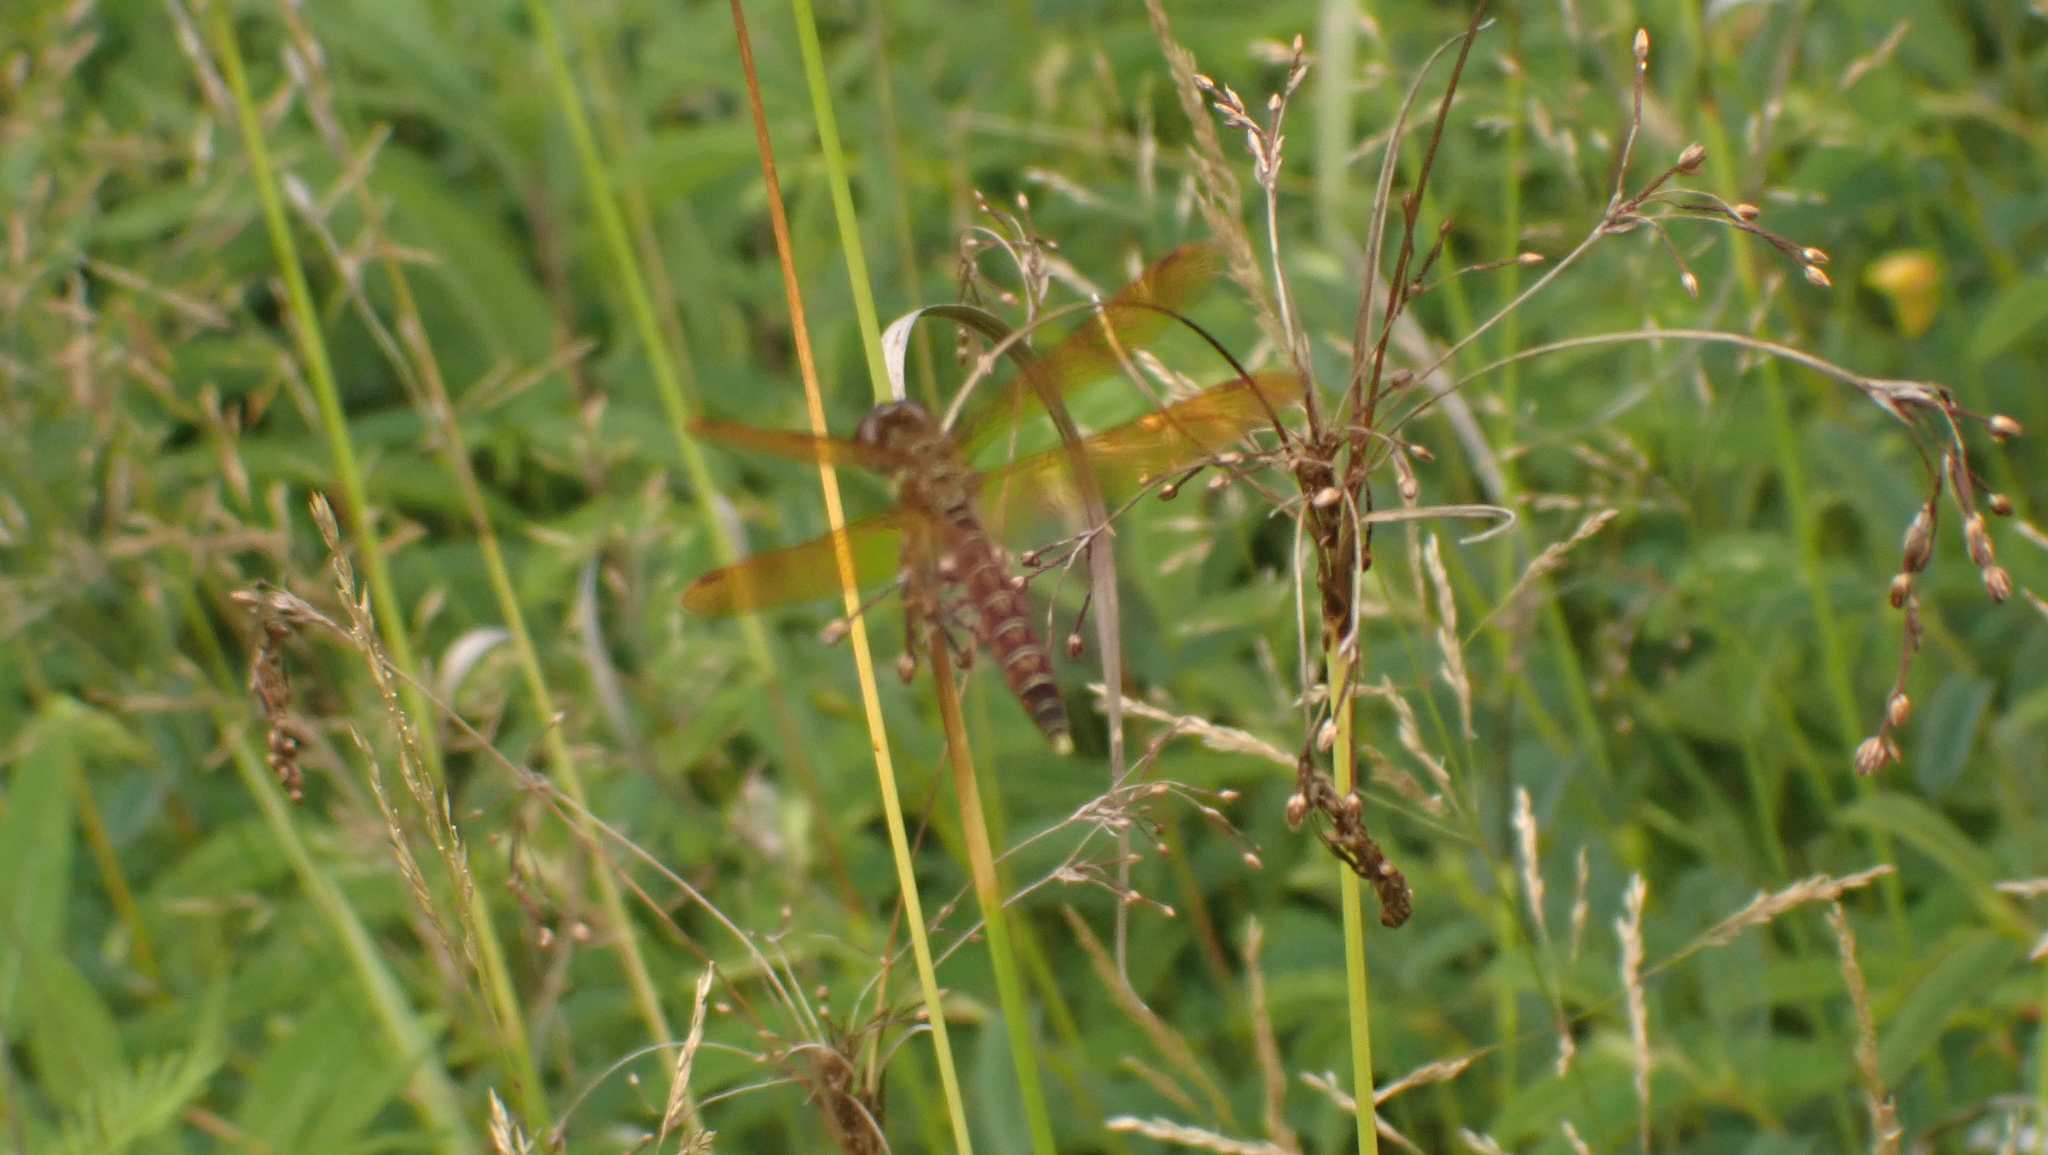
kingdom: Animalia
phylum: Arthropoda
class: Insecta
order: Odonata
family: Libellulidae
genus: Perithemis
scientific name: Perithemis tenera
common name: Eastern amberwing
